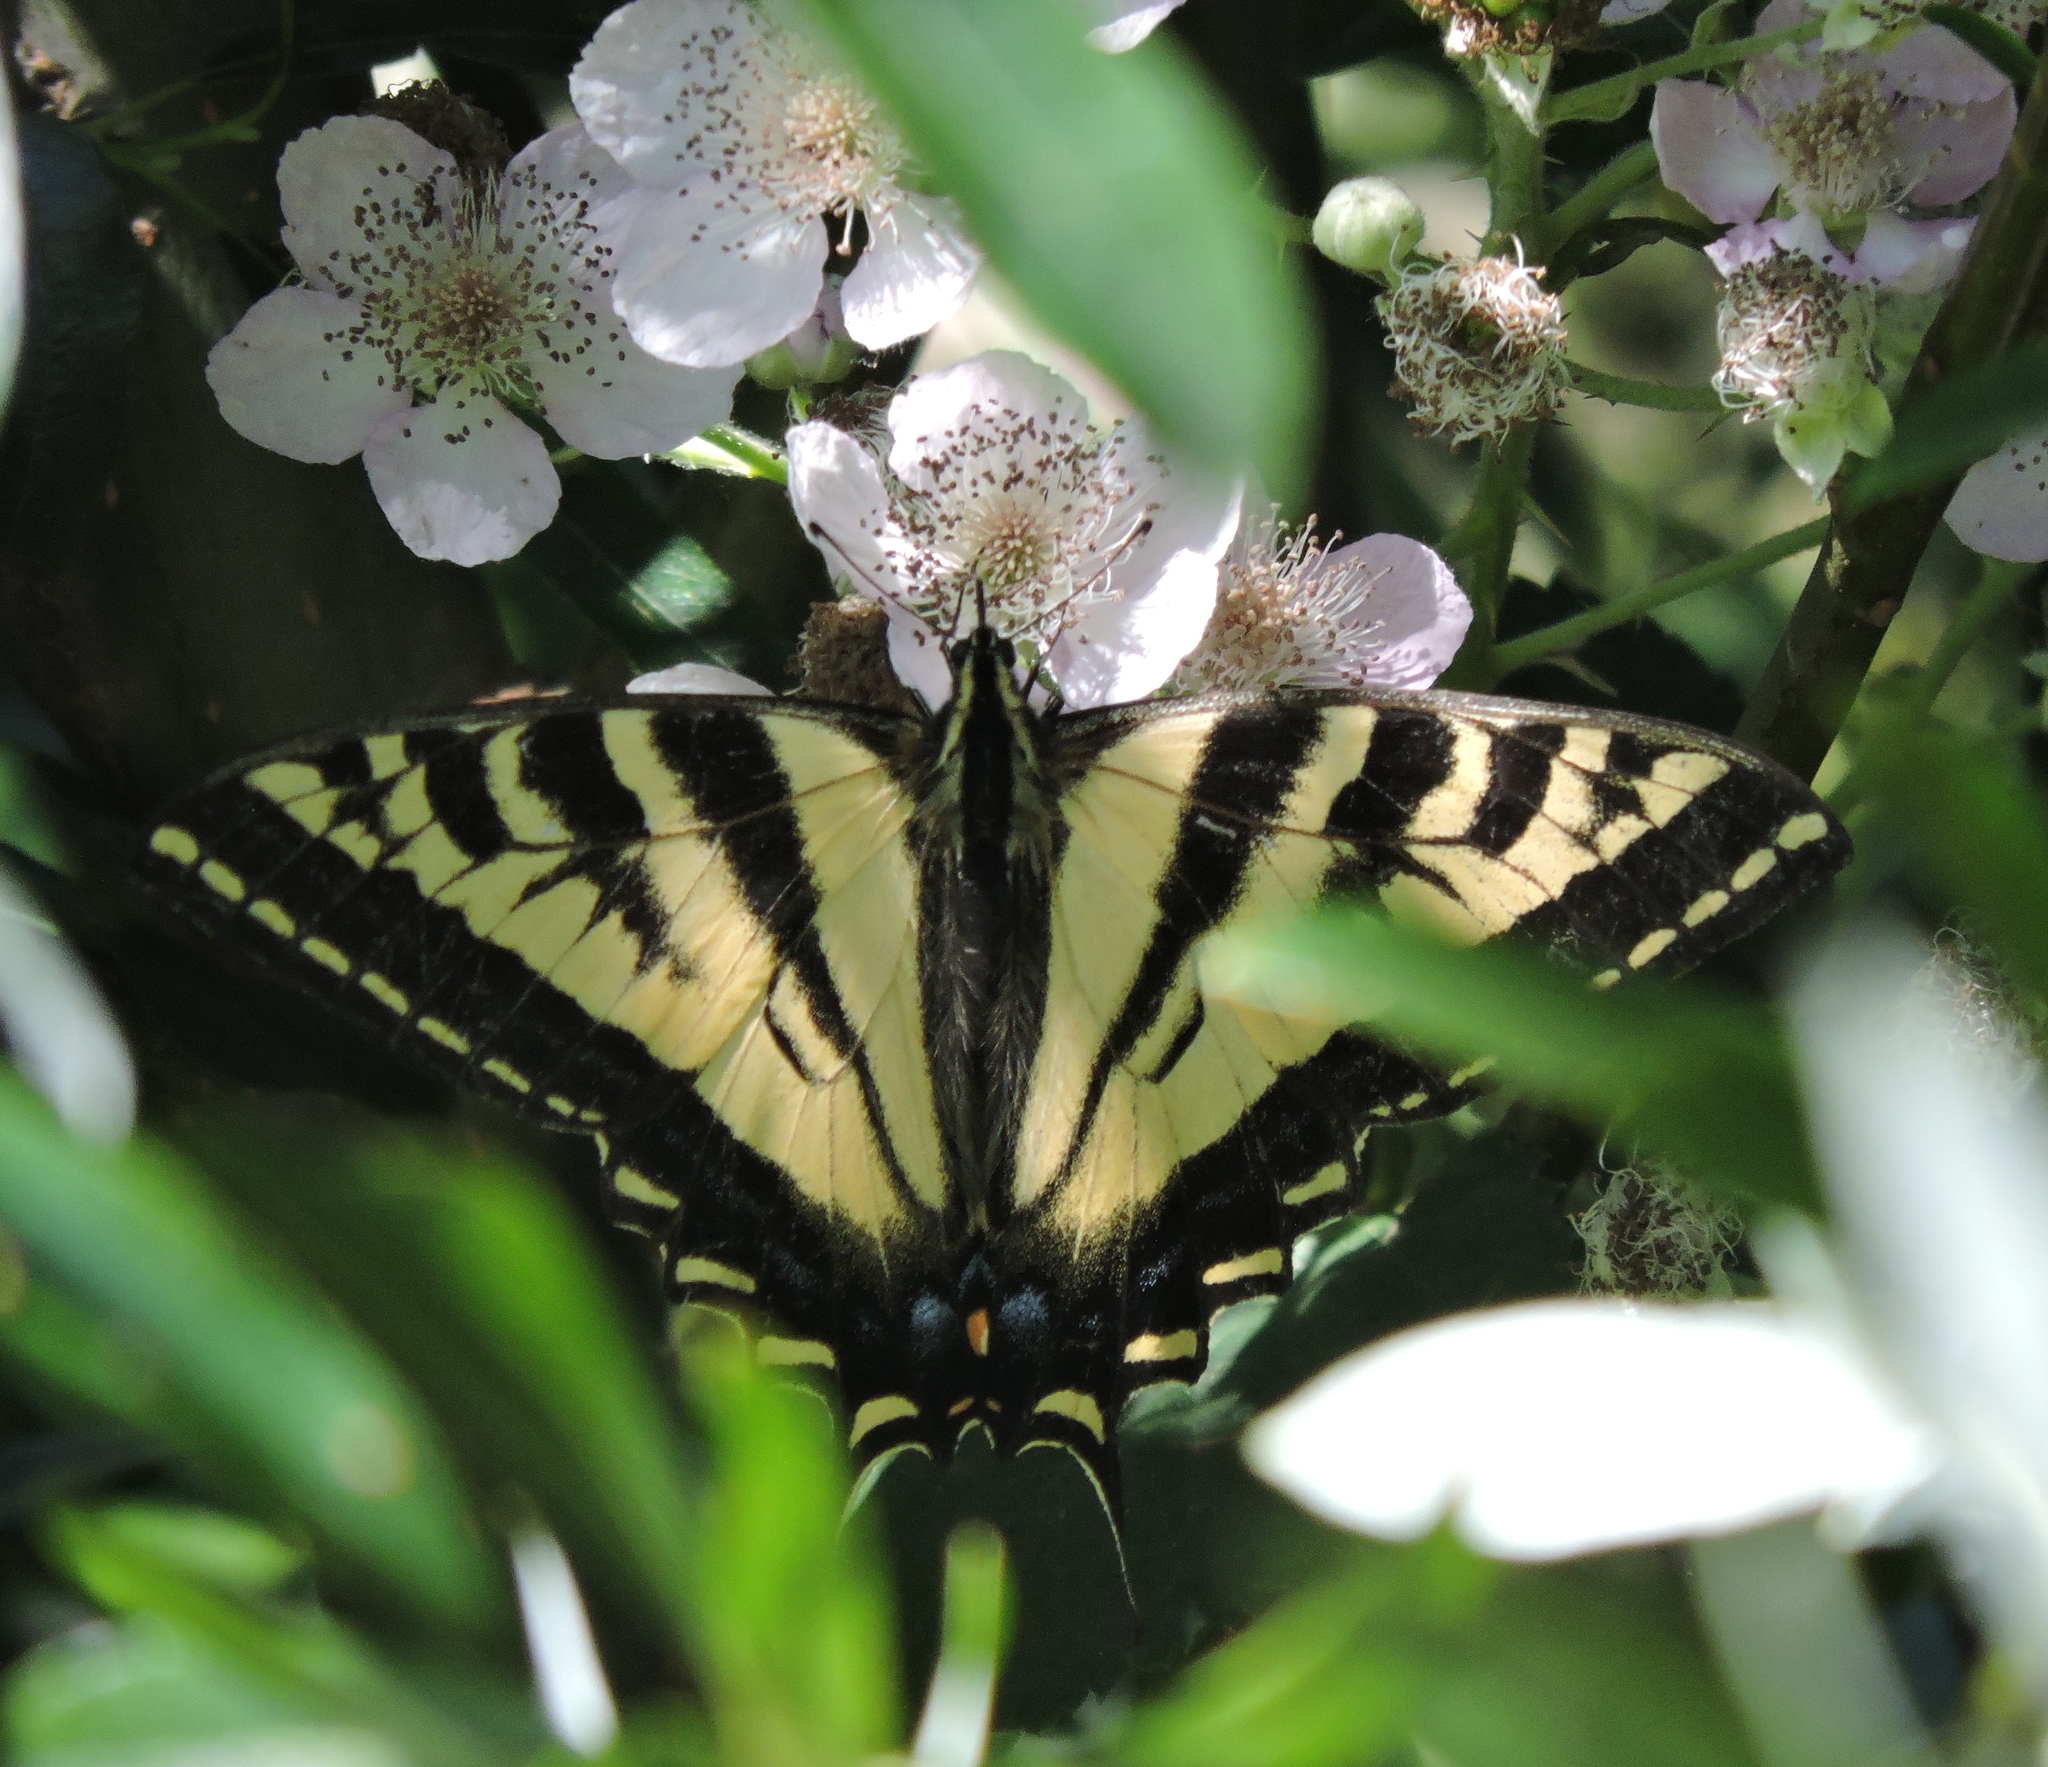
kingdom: Animalia
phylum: Arthropoda
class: Insecta
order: Lepidoptera
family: Papilionidae
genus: Papilio
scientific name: Papilio rutulus
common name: Western tiger swallowtail
